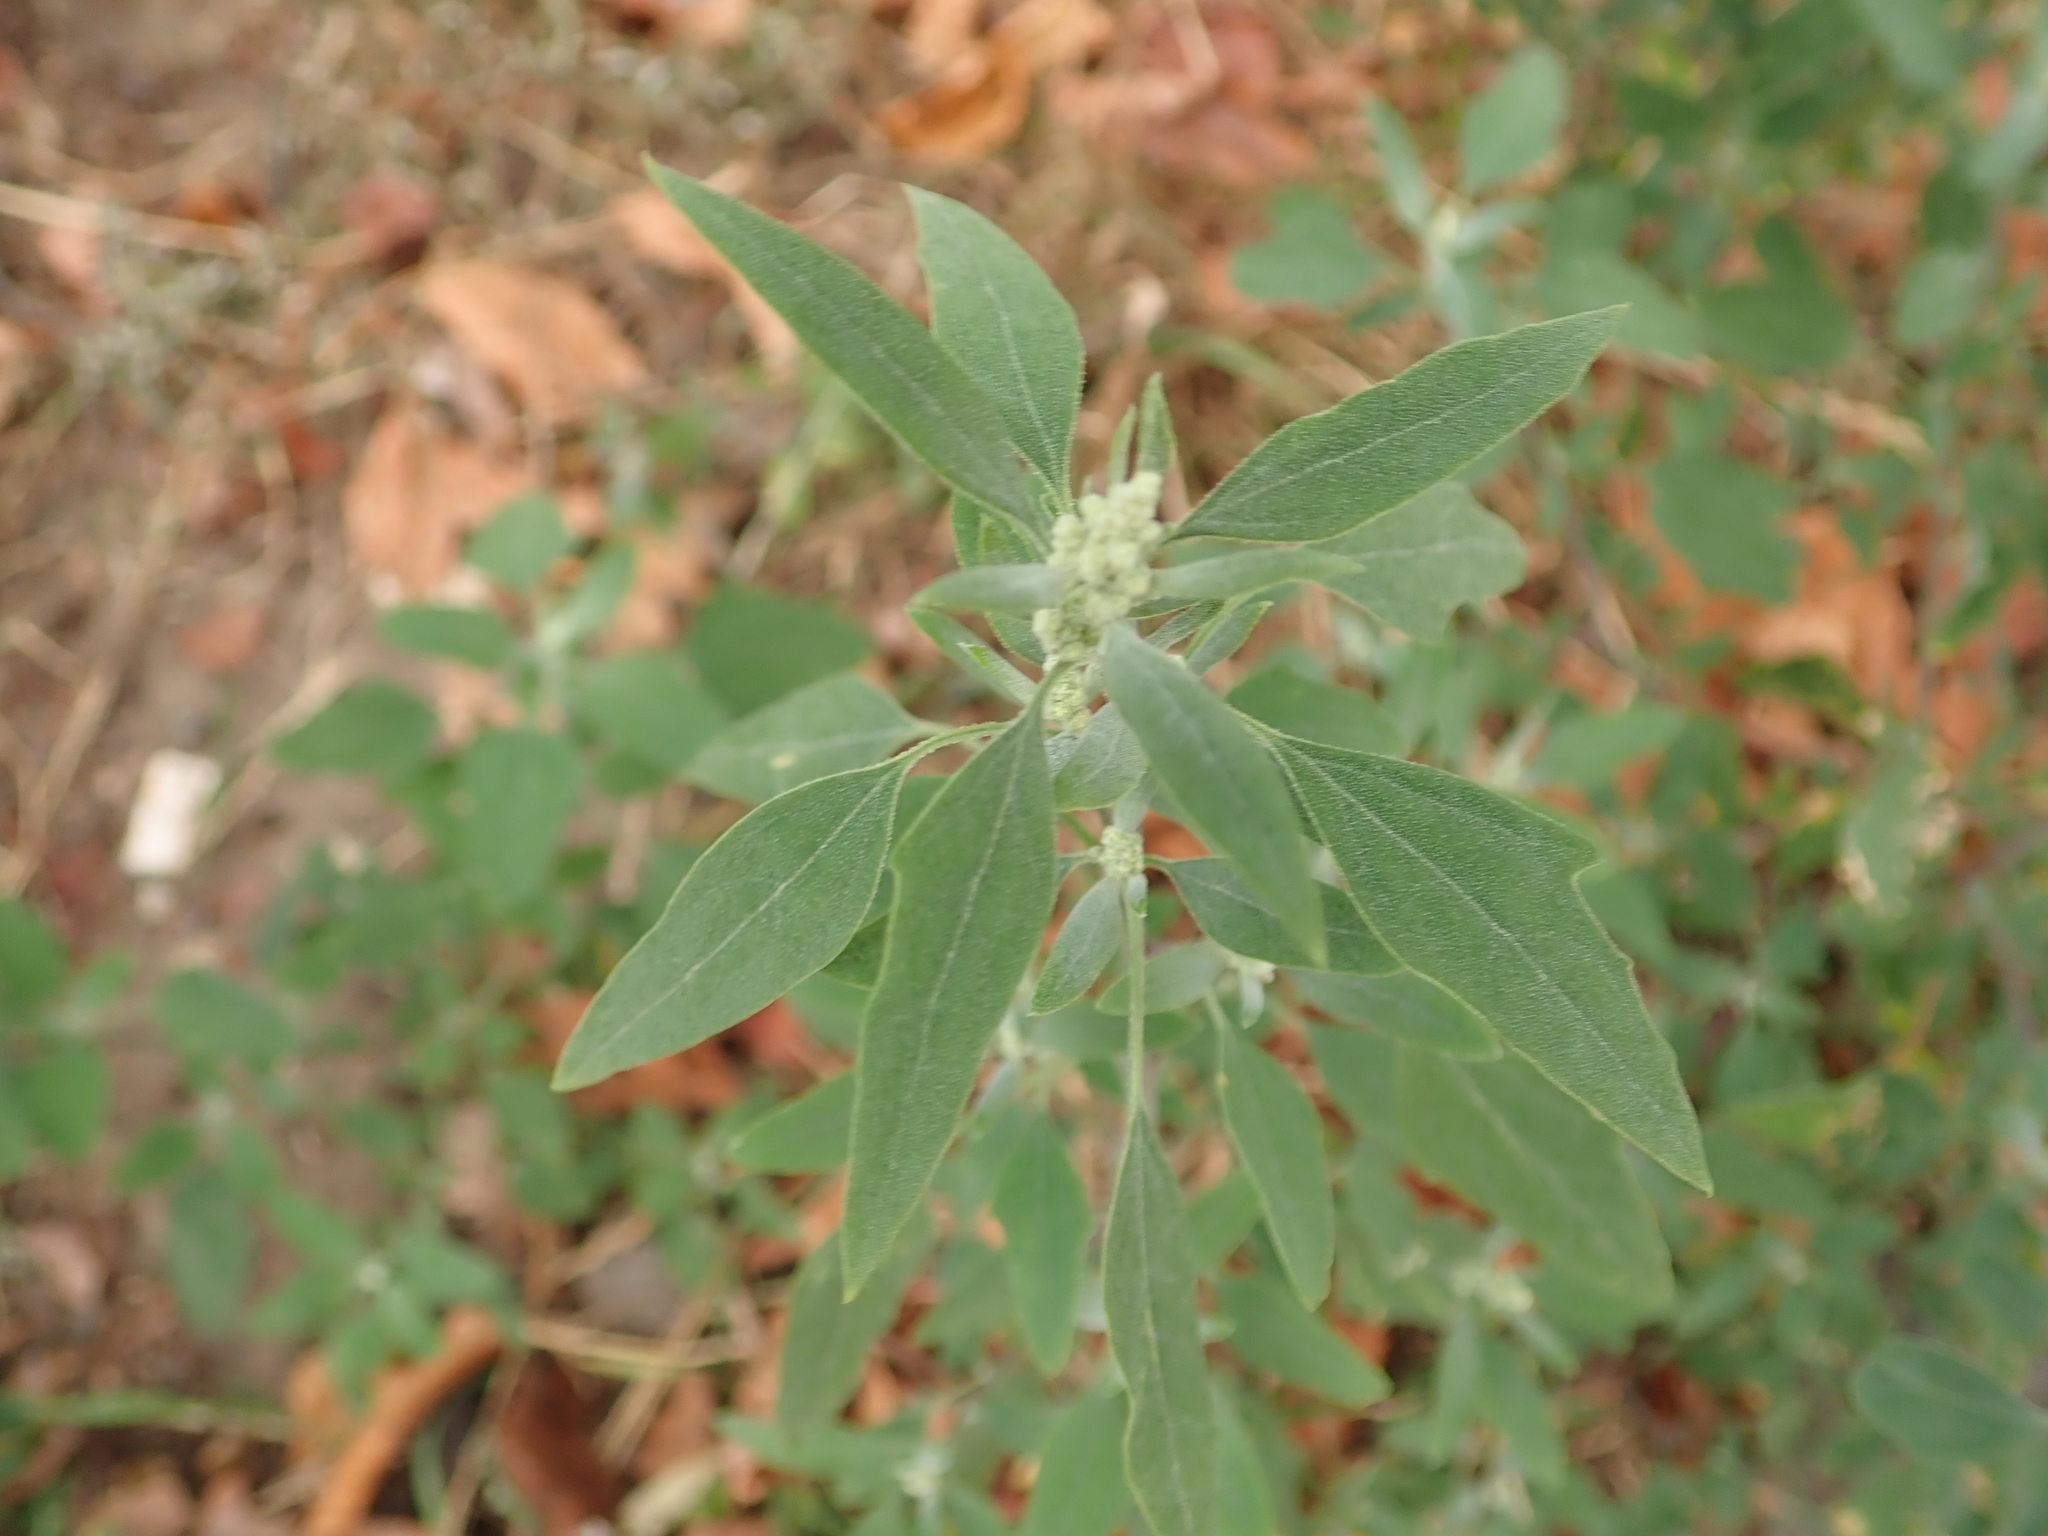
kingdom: Plantae
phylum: Tracheophyta
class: Magnoliopsida
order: Caryophyllales
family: Amaranthaceae
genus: Chenopodium
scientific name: Chenopodium album
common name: Fat-hen
